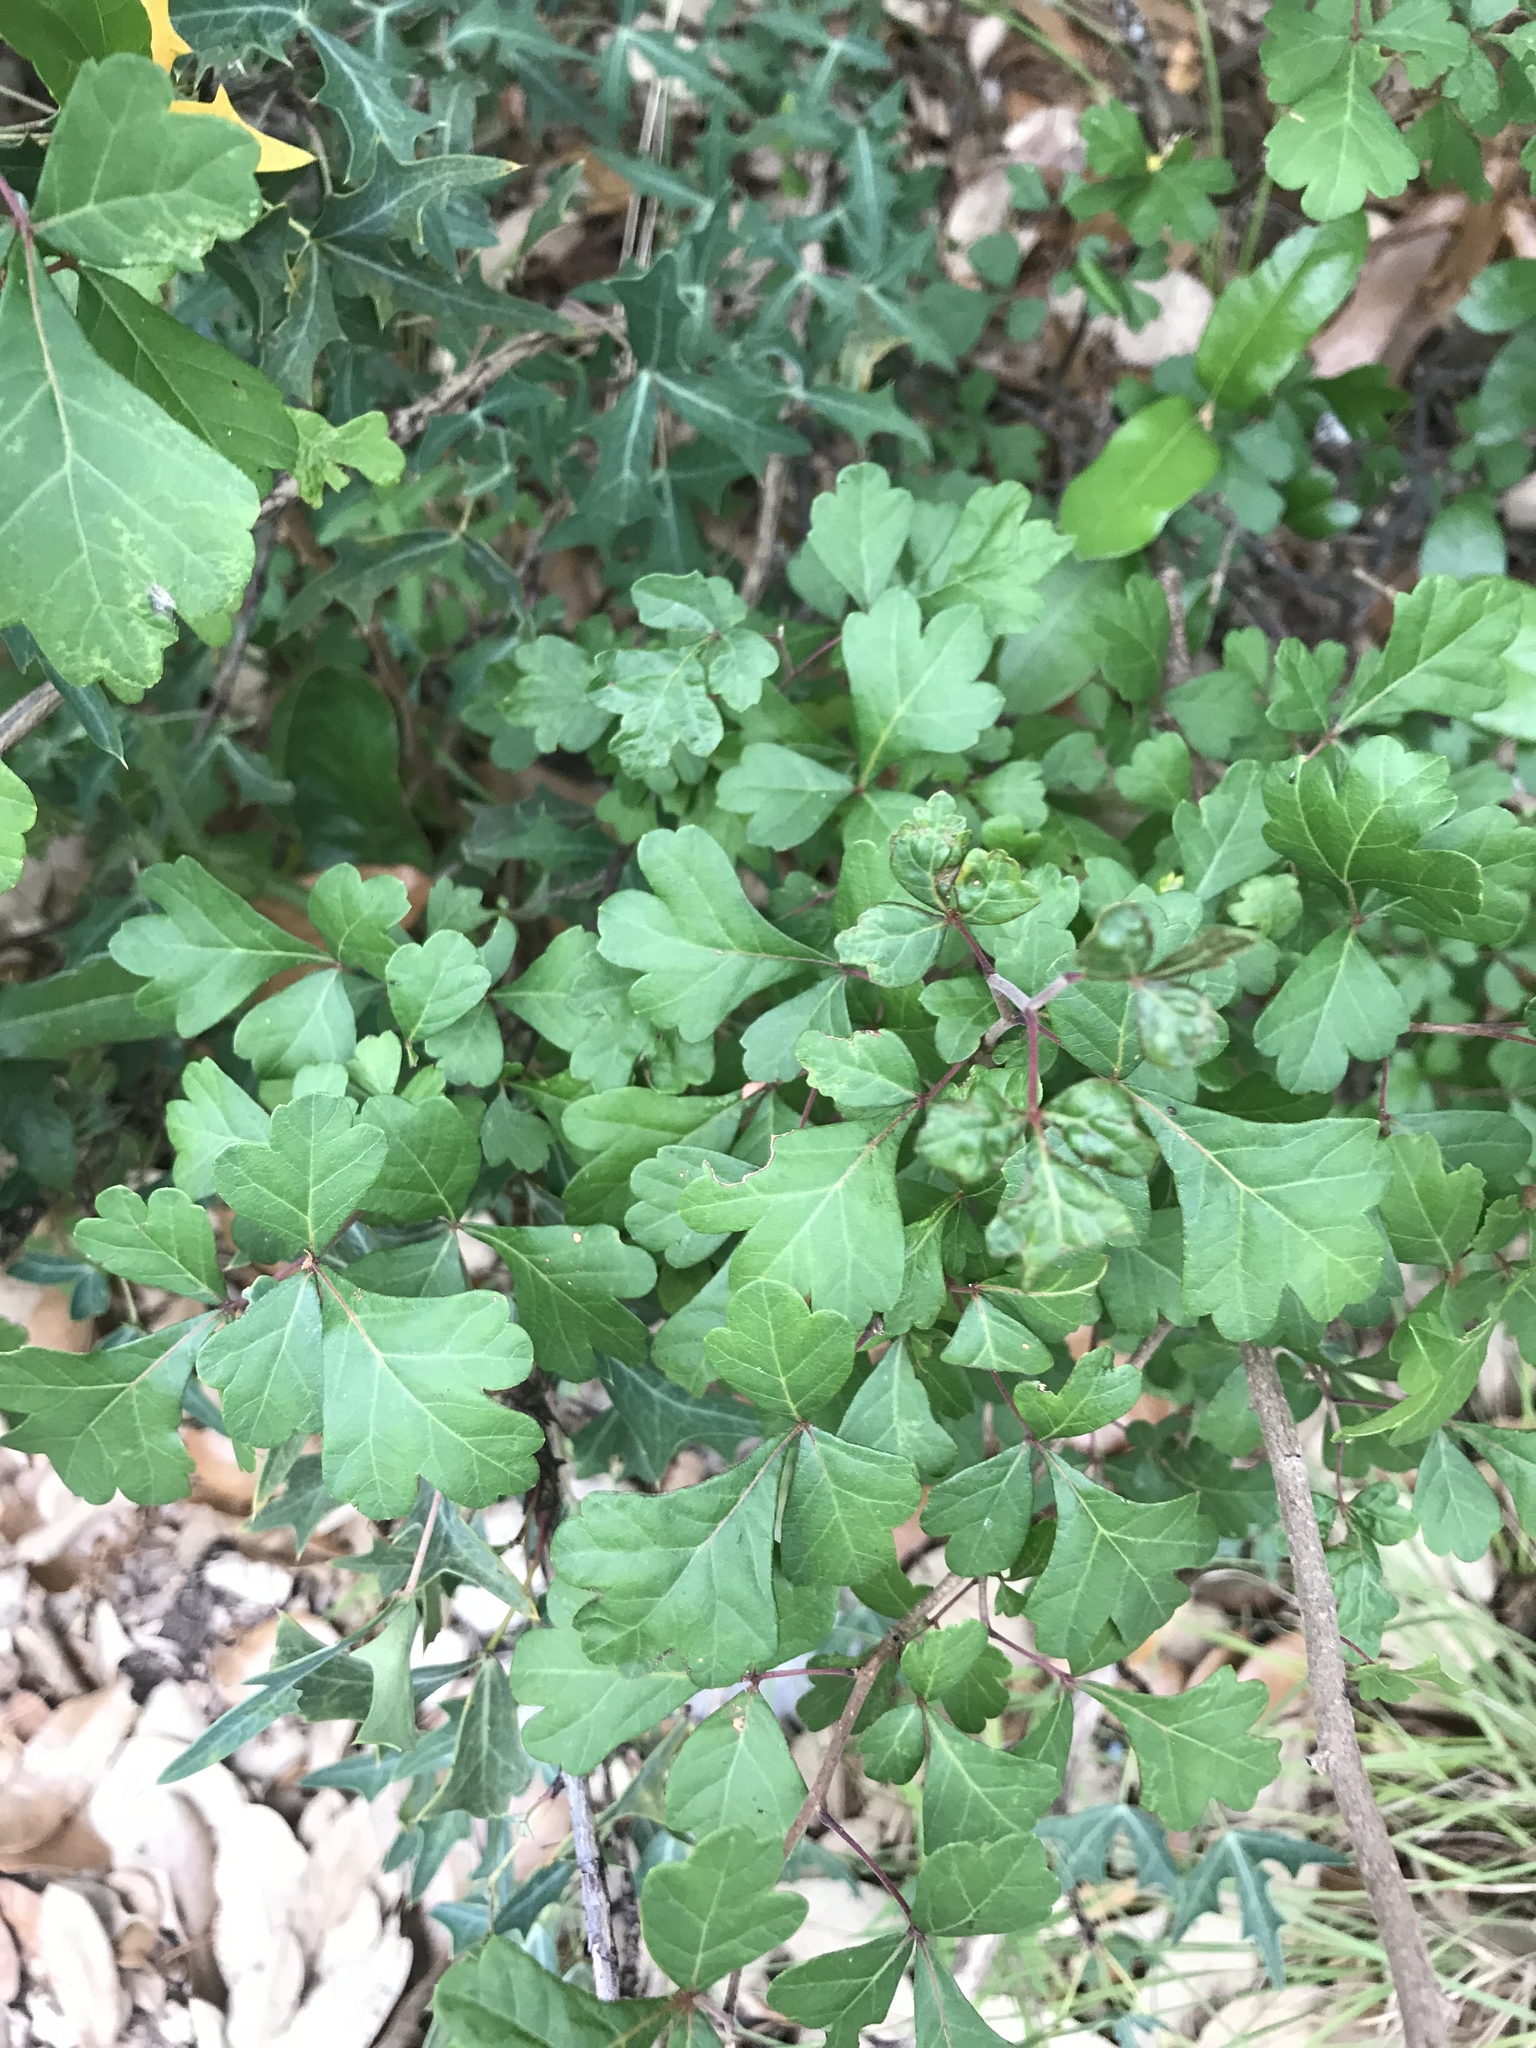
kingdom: Plantae
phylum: Tracheophyta
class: Magnoliopsida
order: Sapindales
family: Anacardiaceae
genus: Rhus
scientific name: Rhus aromatica
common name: Aromatic sumac
